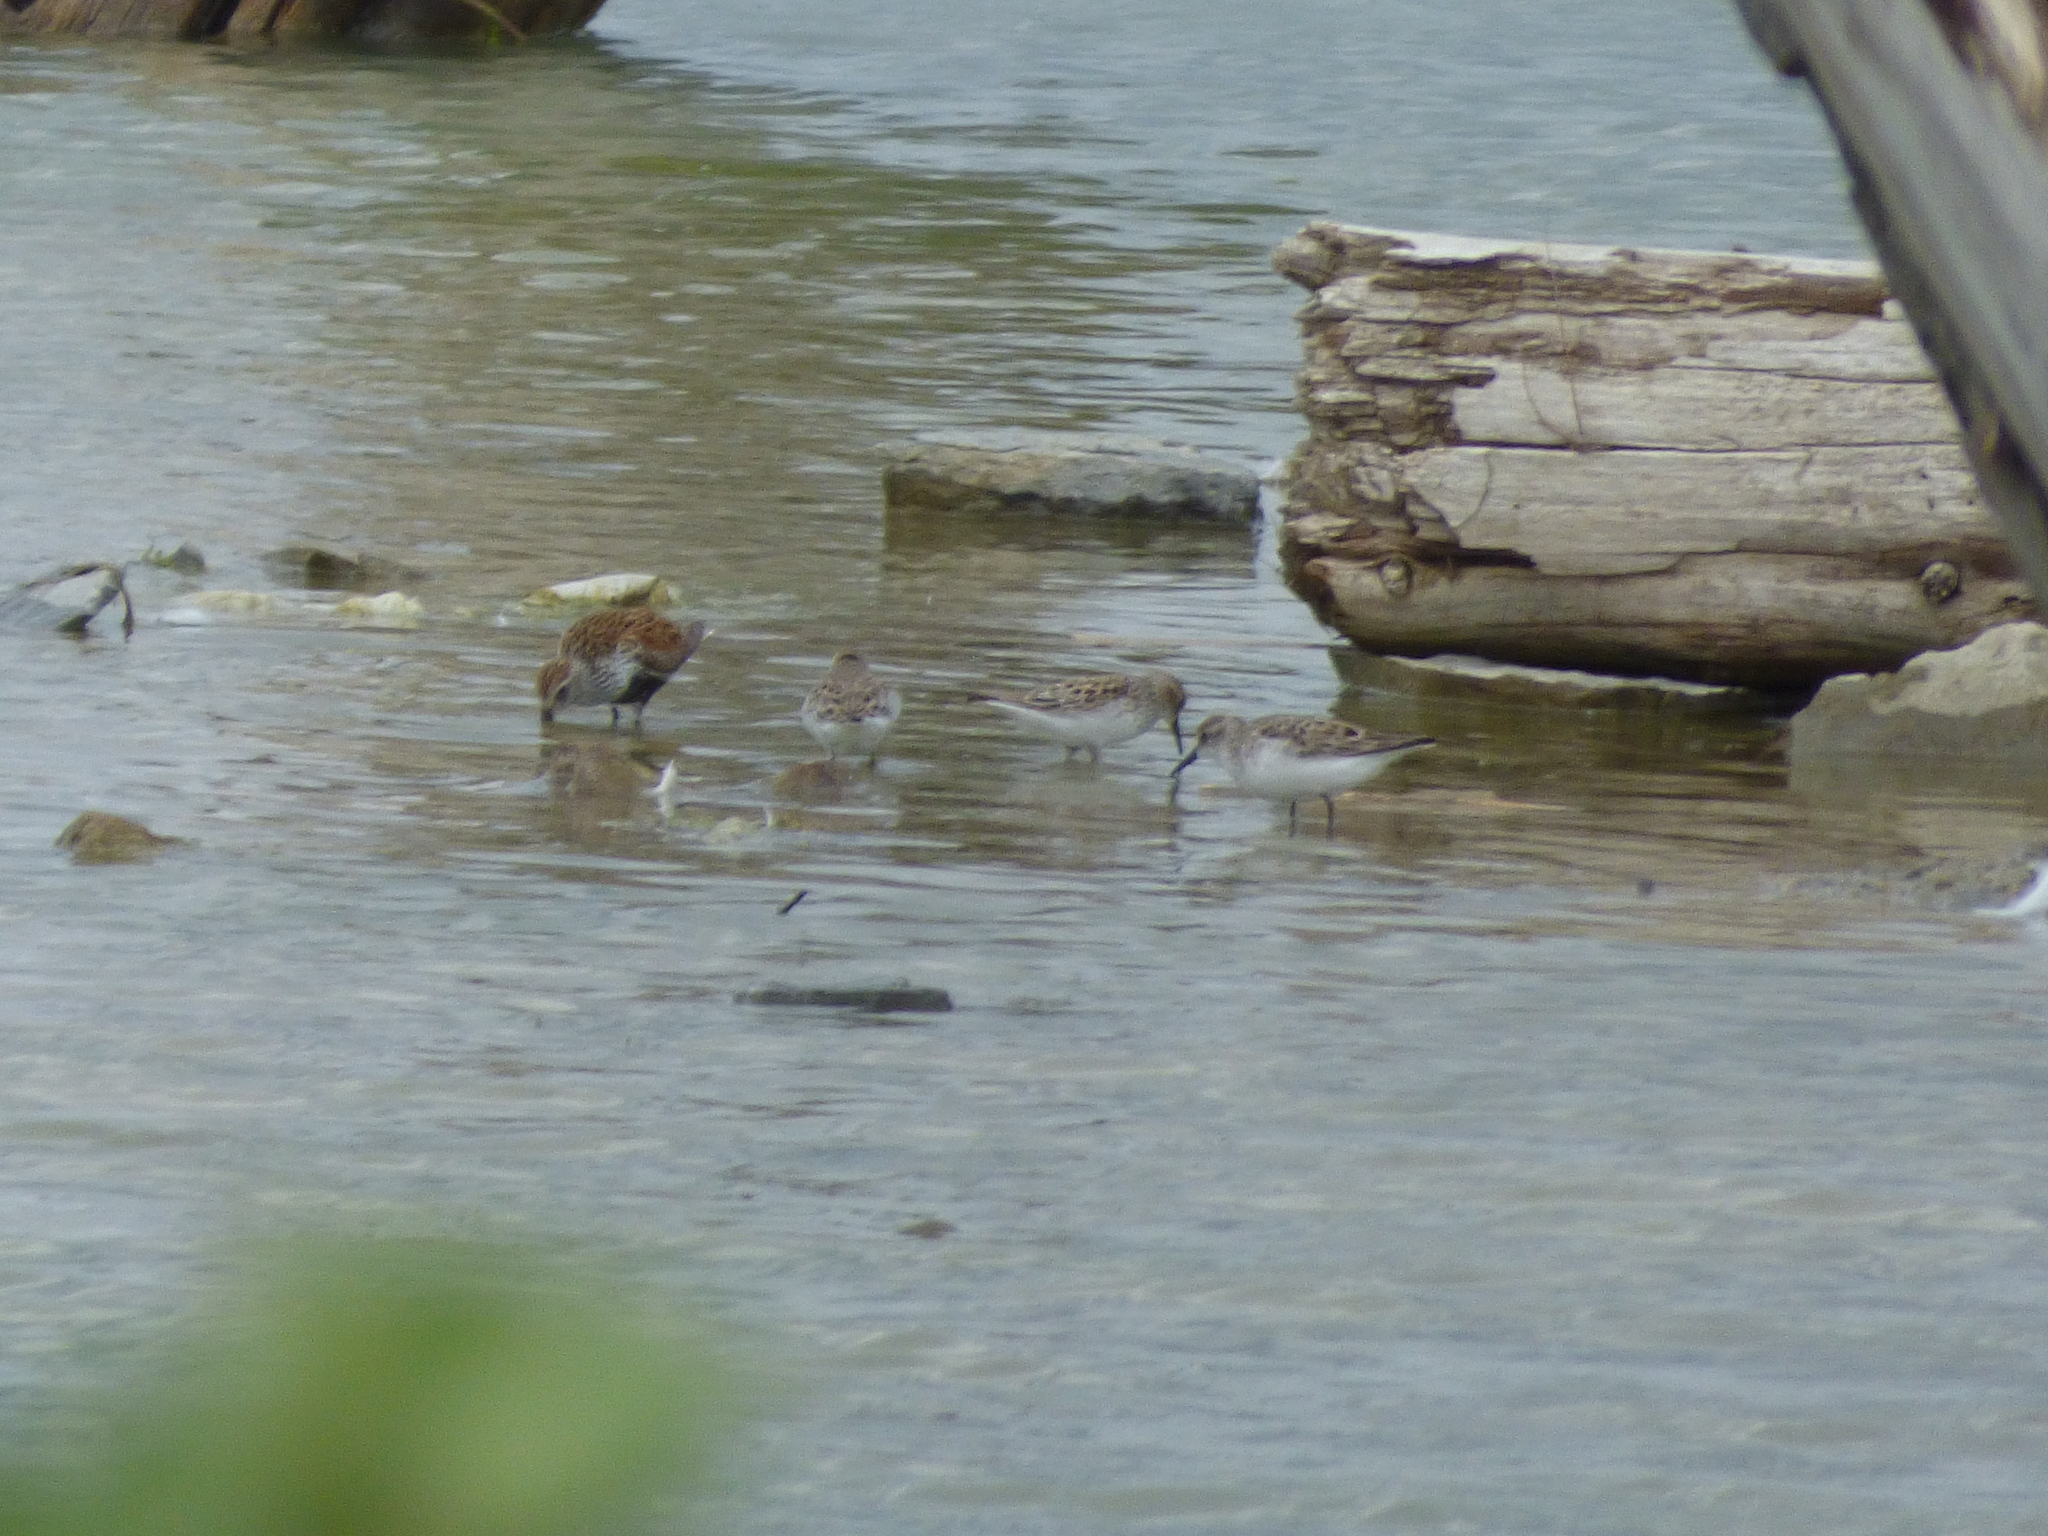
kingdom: Animalia
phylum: Chordata
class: Aves
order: Charadriiformes
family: Scolopacidae
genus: Calidris
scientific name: Calidris alpina
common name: Dunlin
